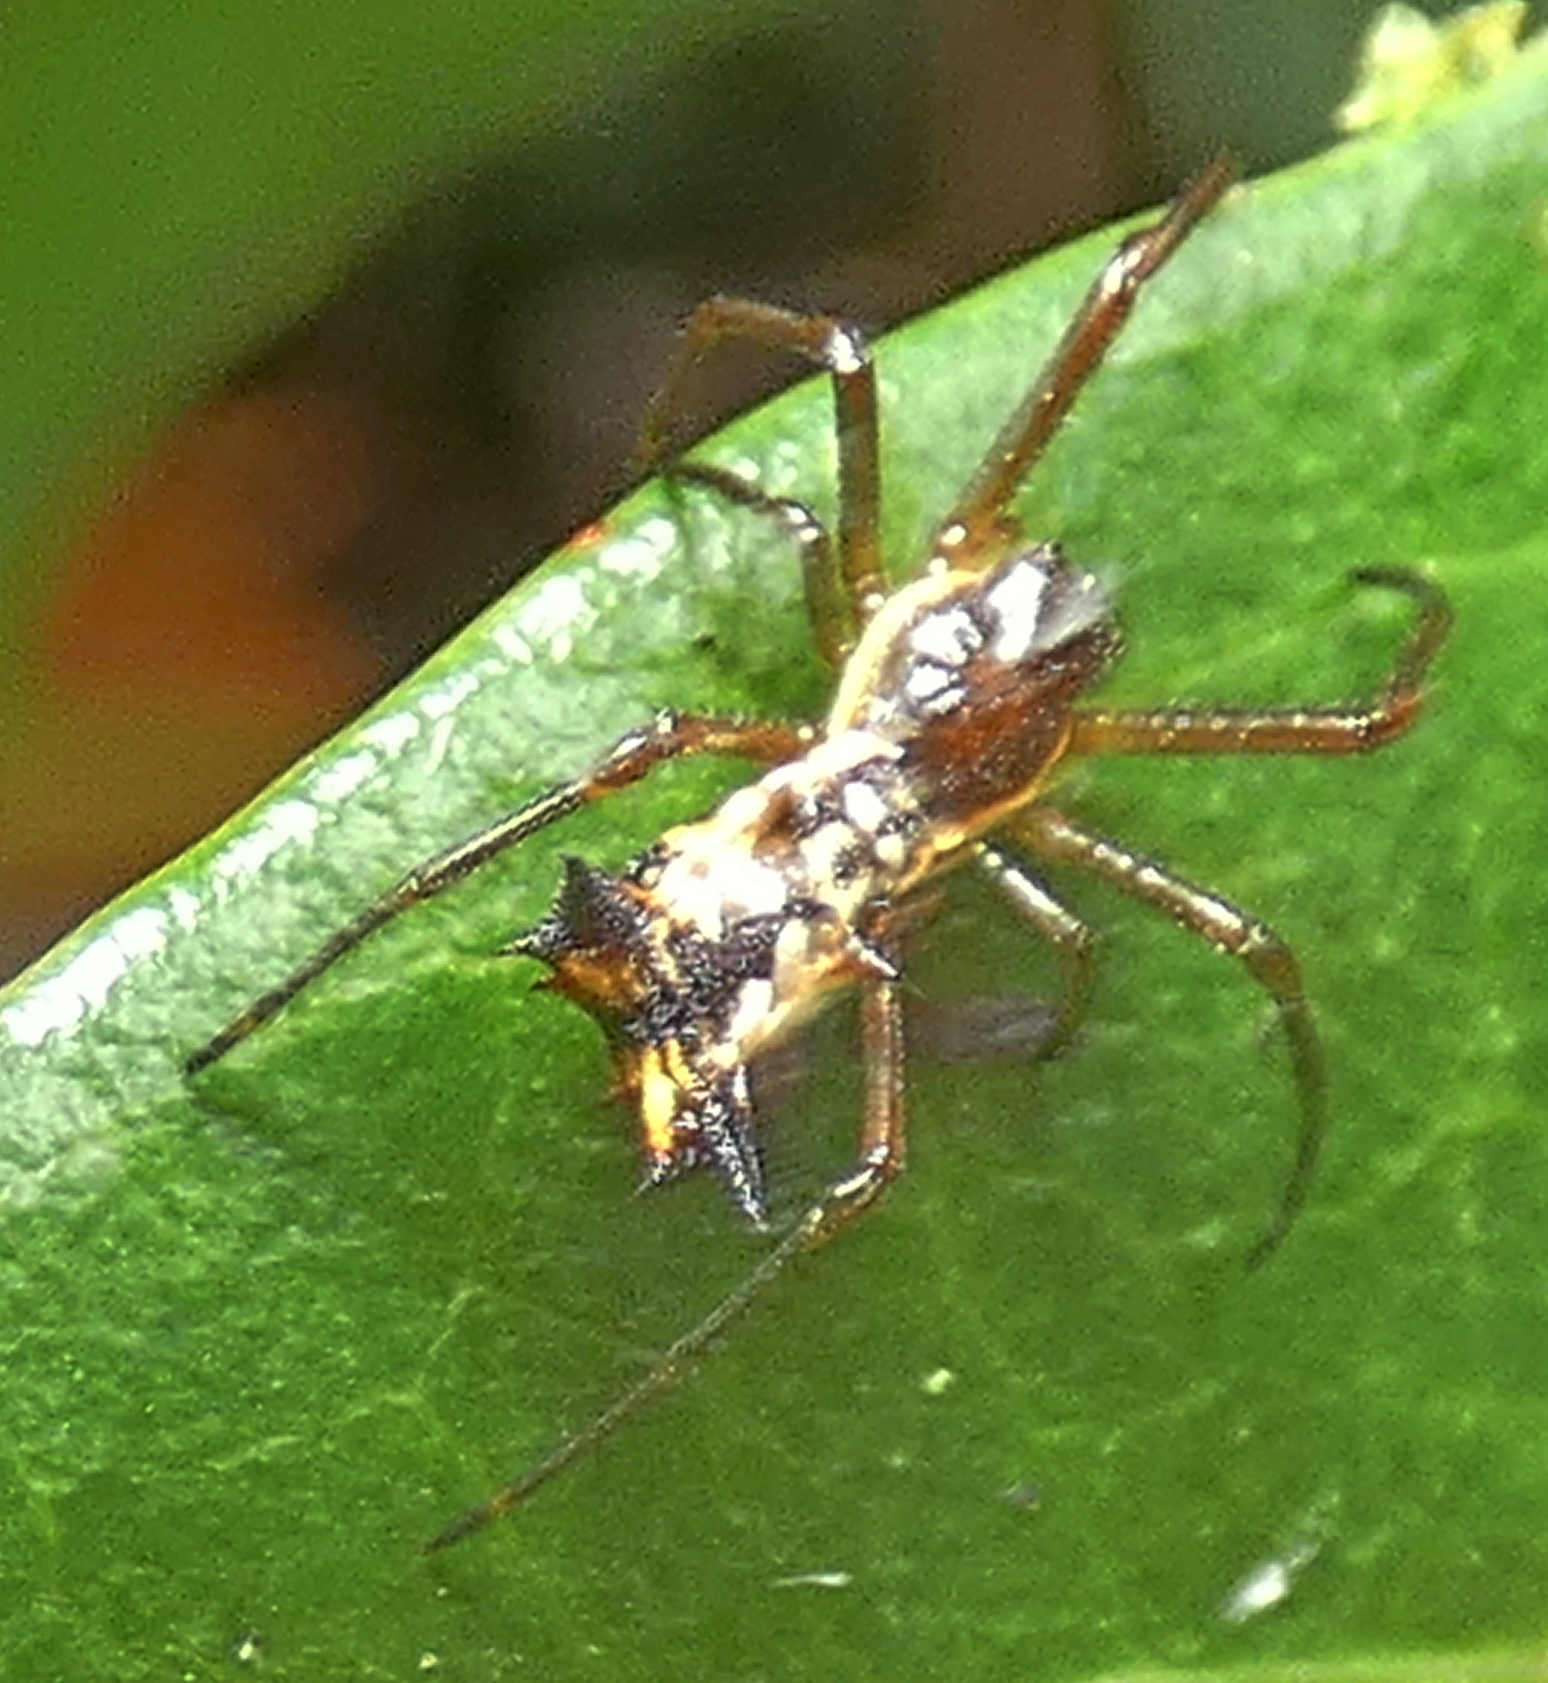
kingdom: Animalia
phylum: Arthropoda
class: Arachnida
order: Araneae
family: Araneidae
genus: Micrathena
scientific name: Micrathena fissispina
